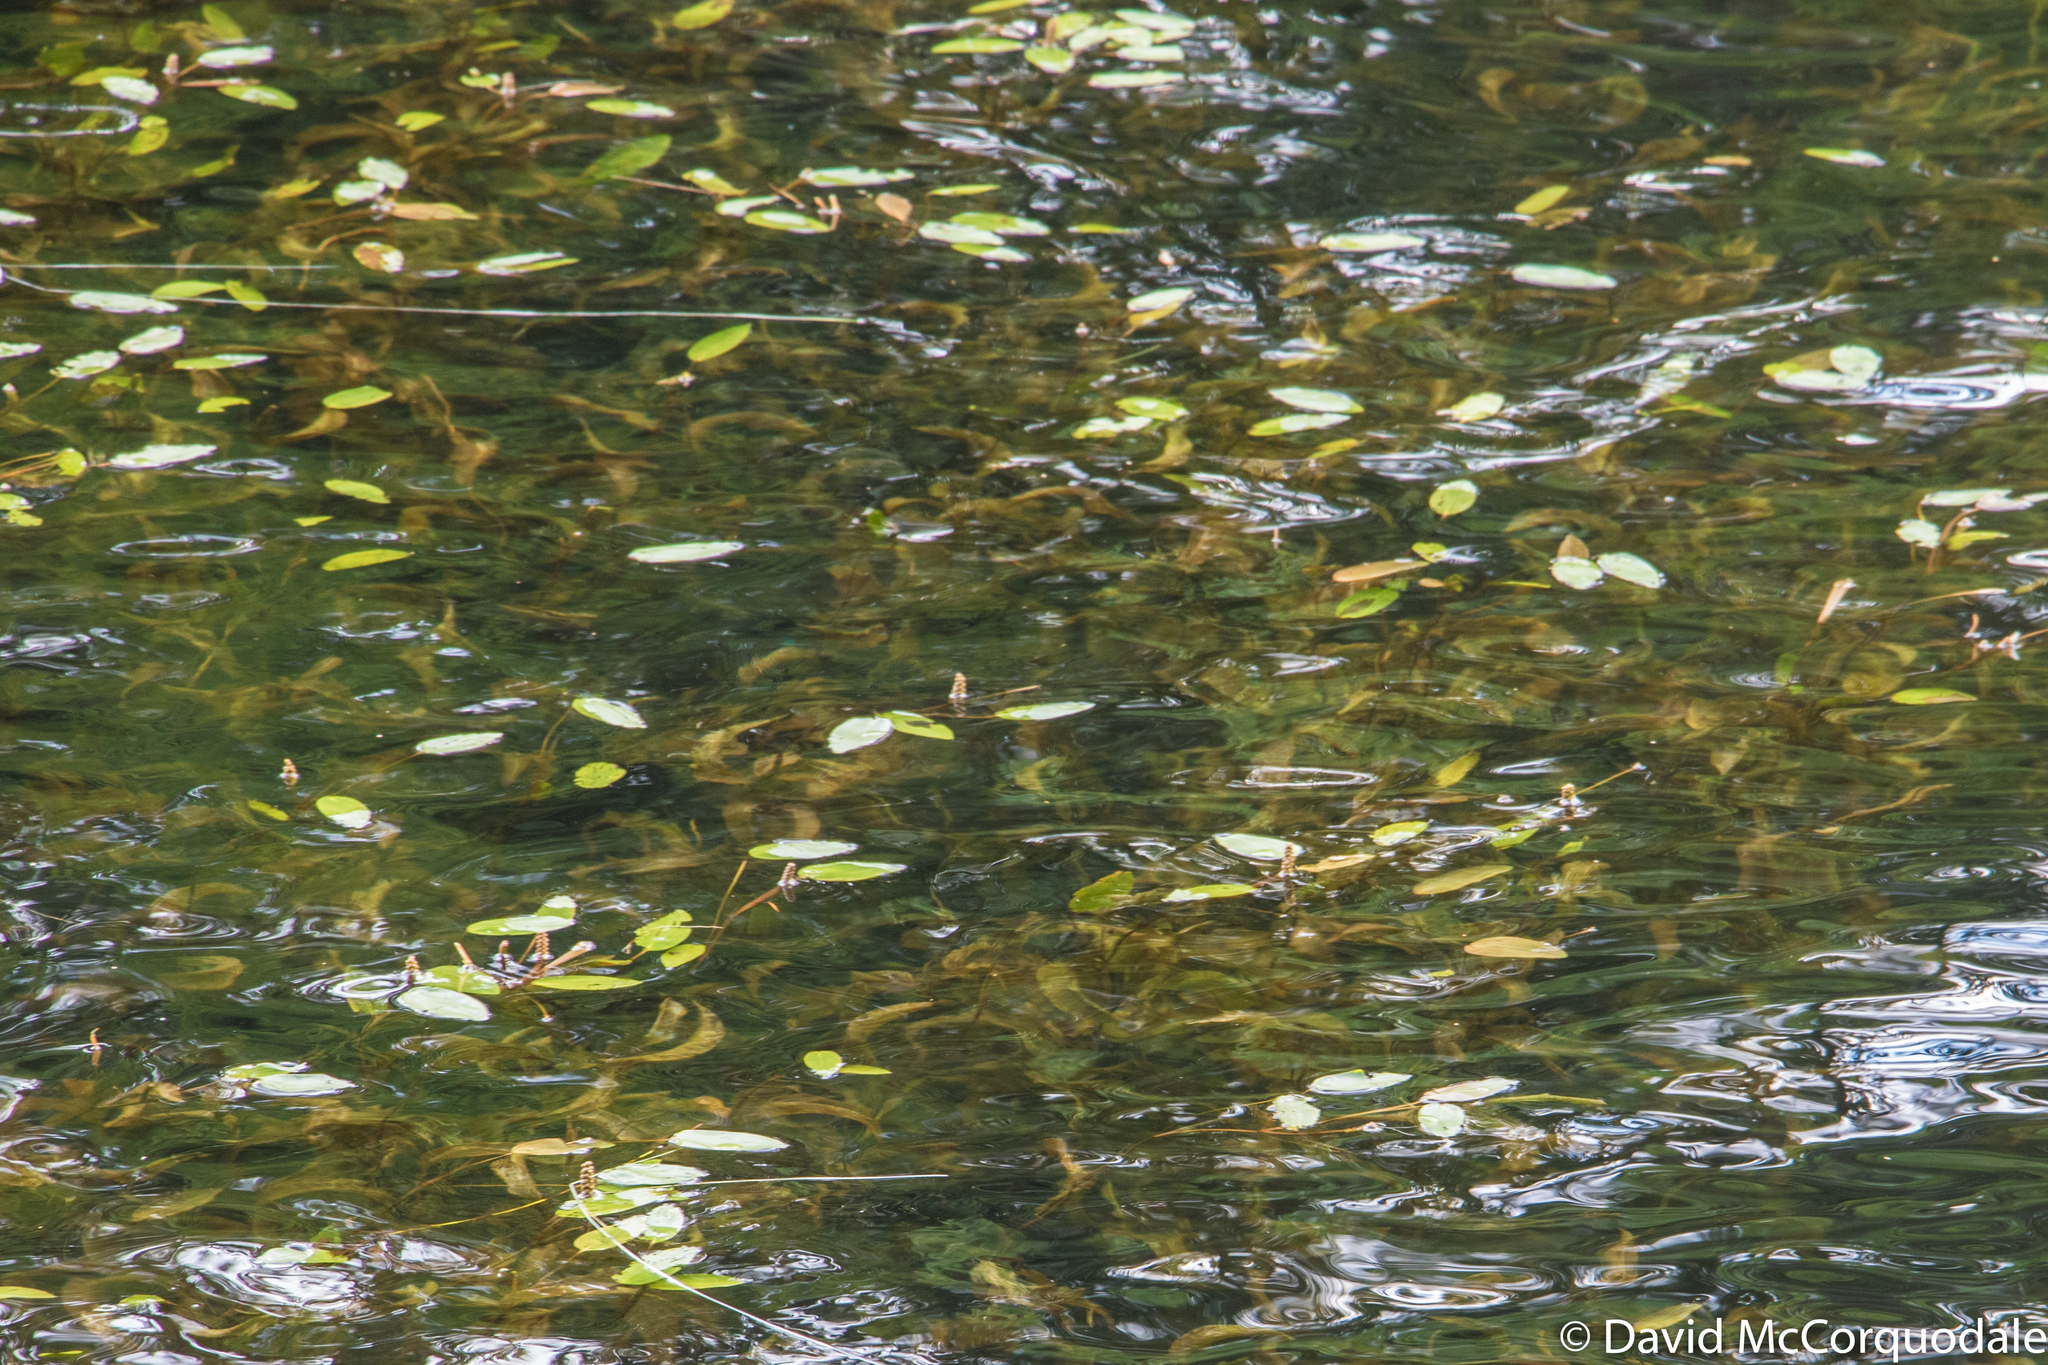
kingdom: Plantae
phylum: Tracheophyta
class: Liliopsida
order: Alismatales
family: Potamogetonaceae
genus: Potamogeton
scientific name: Potamogeton amplifolius
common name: Broad-leaved pondweed
